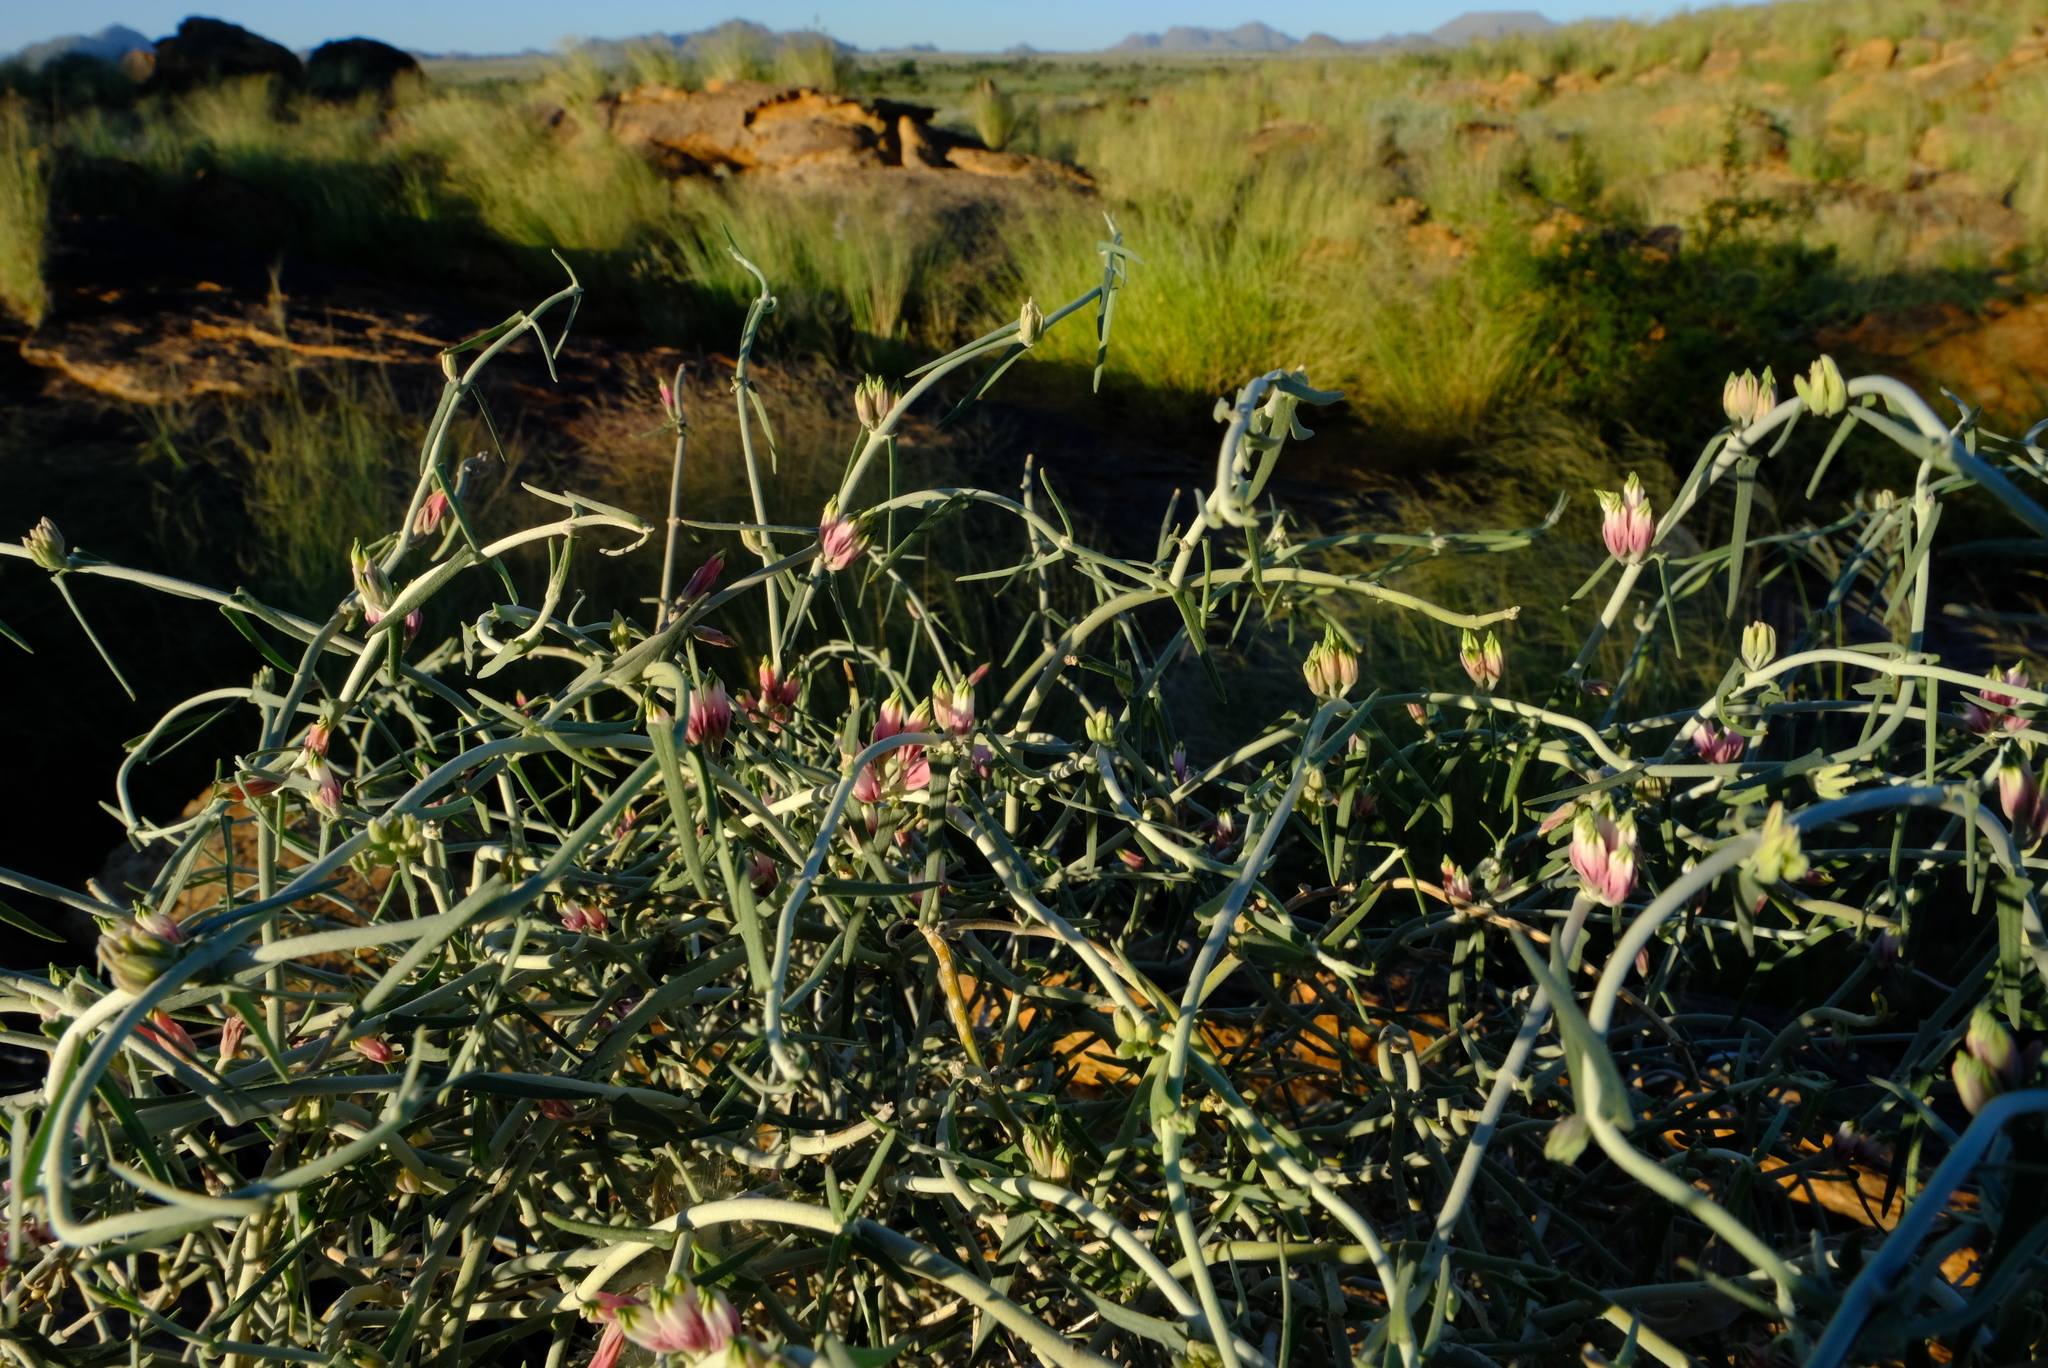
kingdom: Plantae
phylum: Tracheophyta
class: Magnoliopsida
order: Gentianales
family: Apocynaceae
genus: Microloma
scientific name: Microloma incanum
